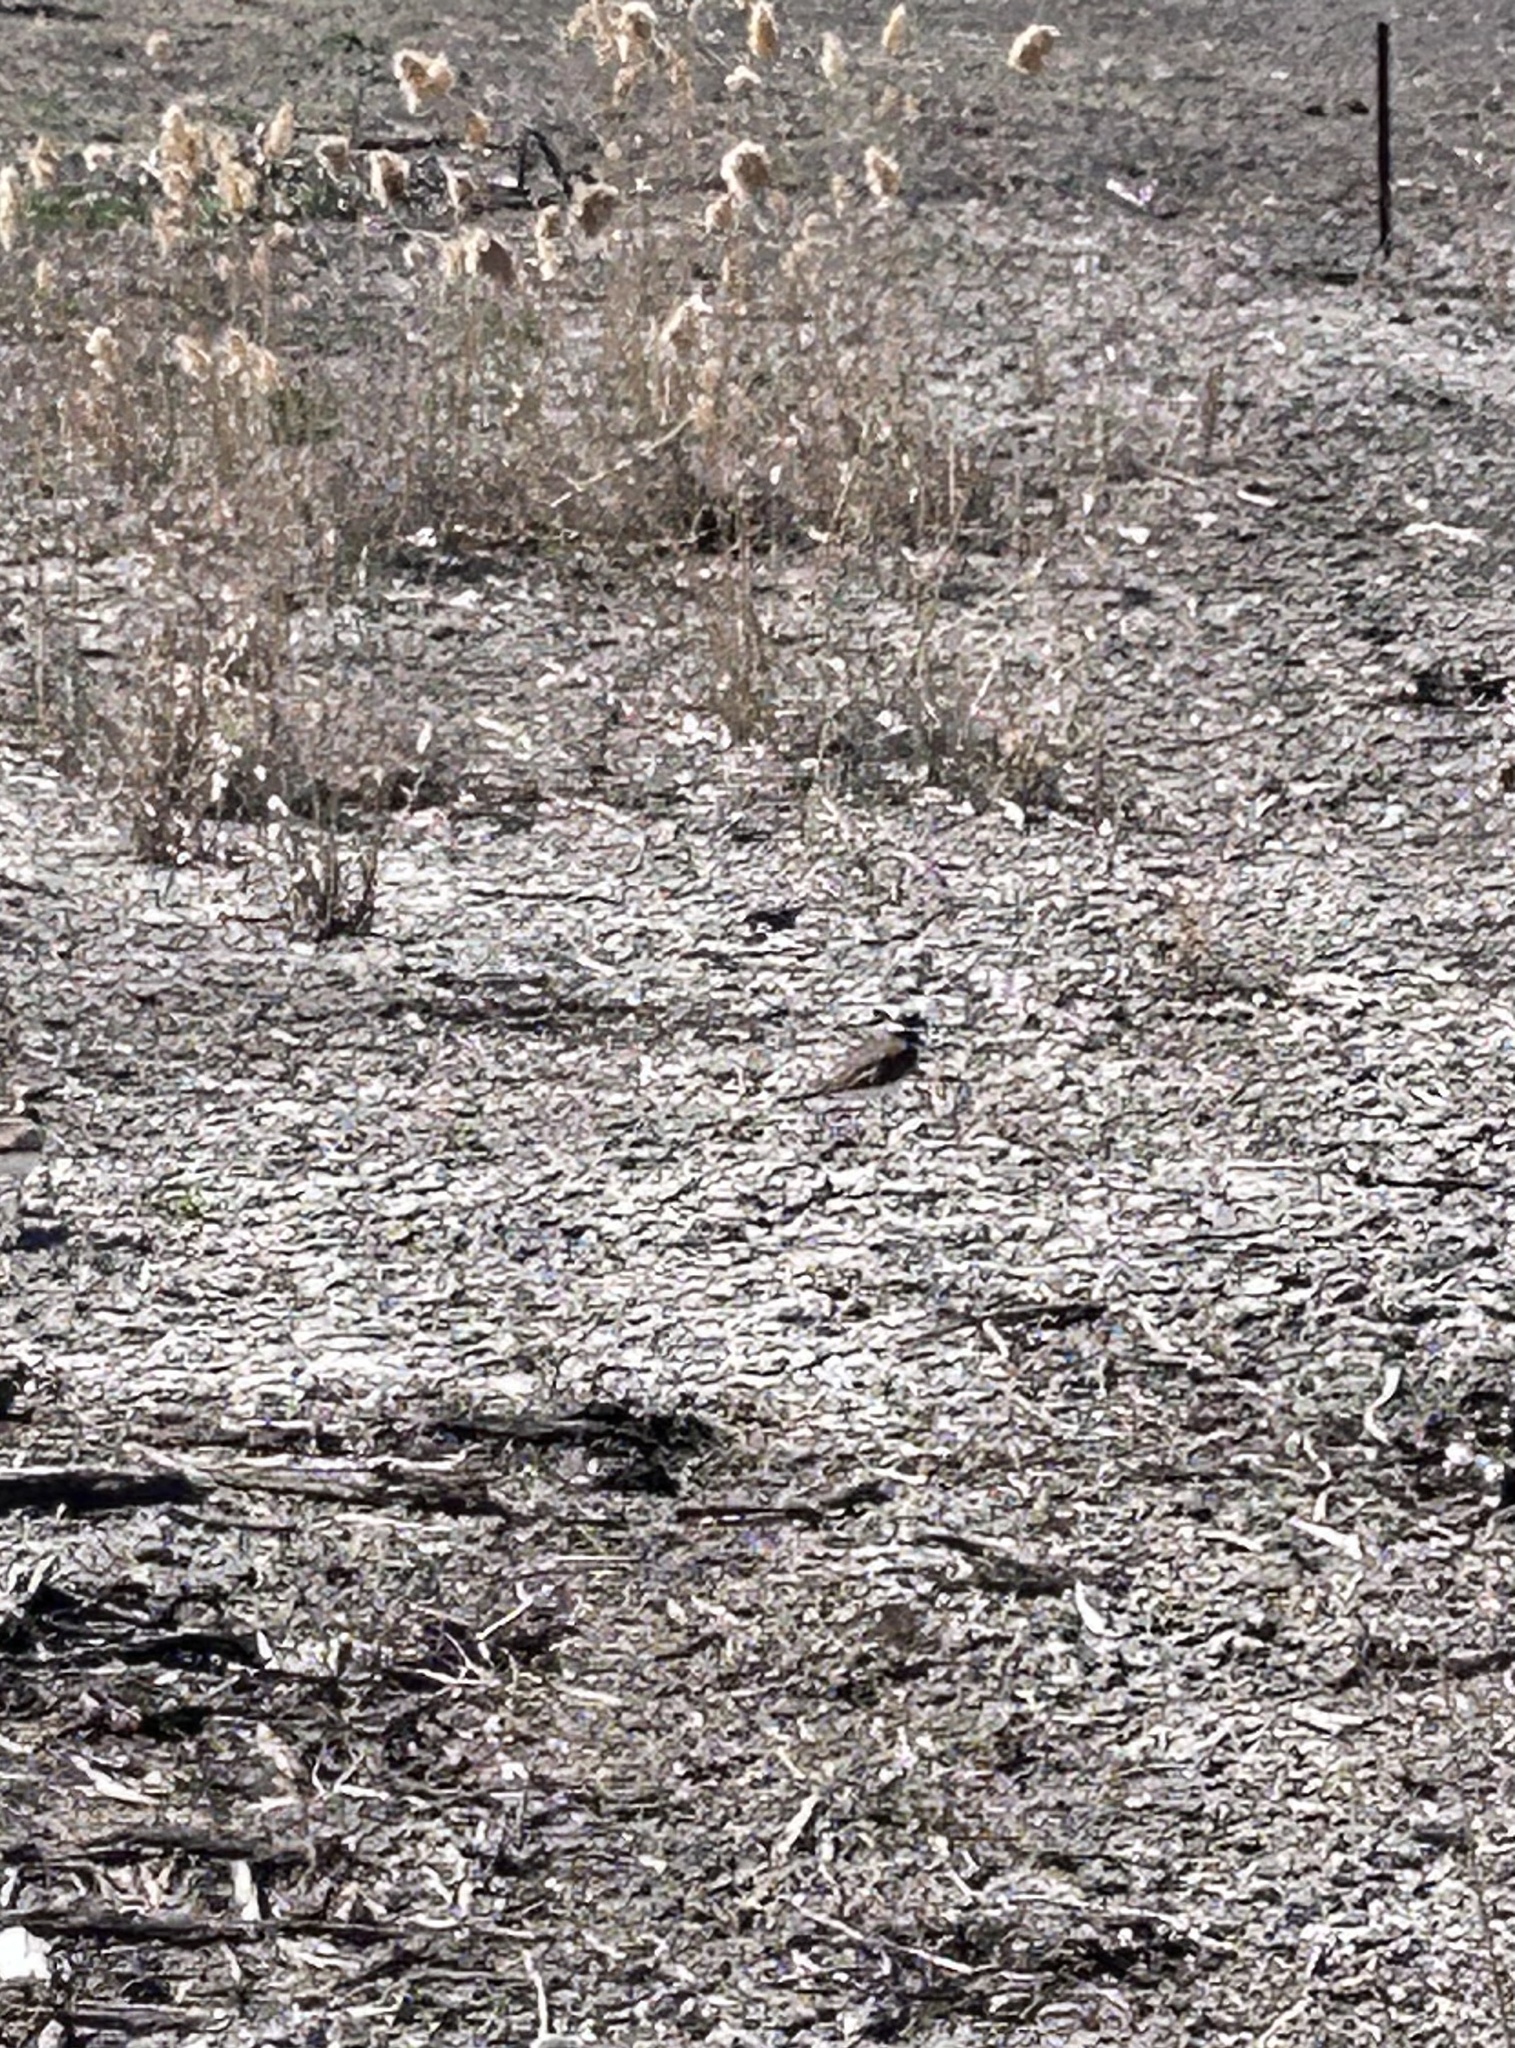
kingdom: Animalia
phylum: Chordata
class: Aves
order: Charadriiformes
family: Charadriidae
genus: Charadrius
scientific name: Charadrius vociferus
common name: Killdeer
